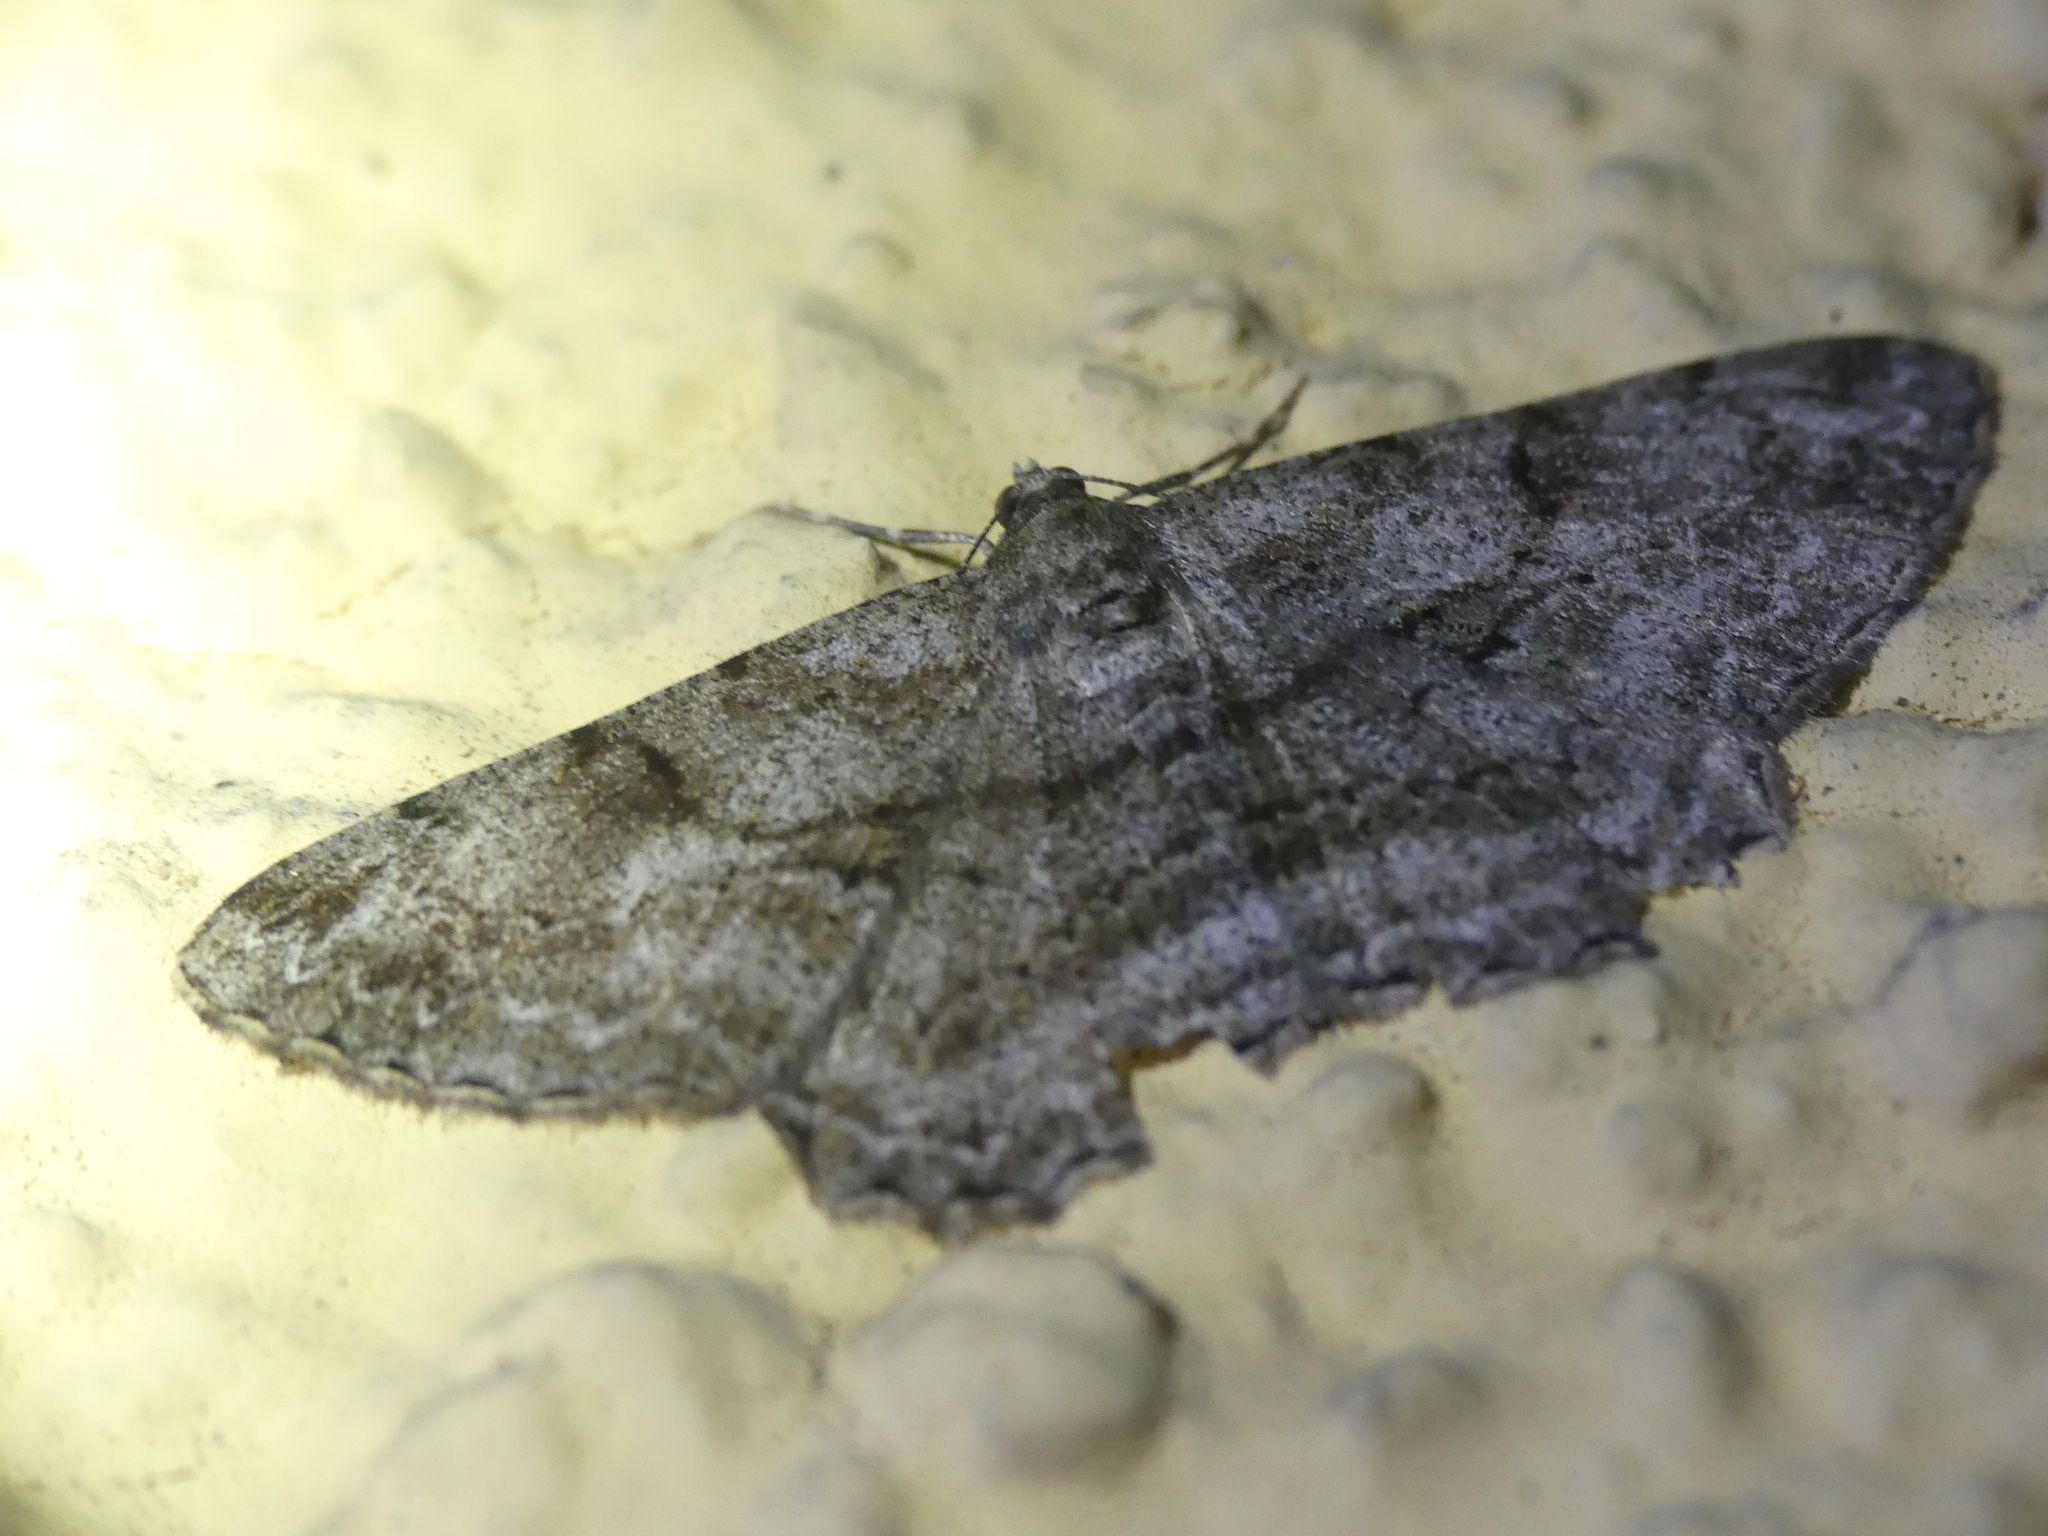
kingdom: Animalia
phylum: Arthropoda
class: Insecta
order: Lepidoptera
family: Geometridae
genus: Peribatodes
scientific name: Peribatodes rhomboidaria
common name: Willow beauty
